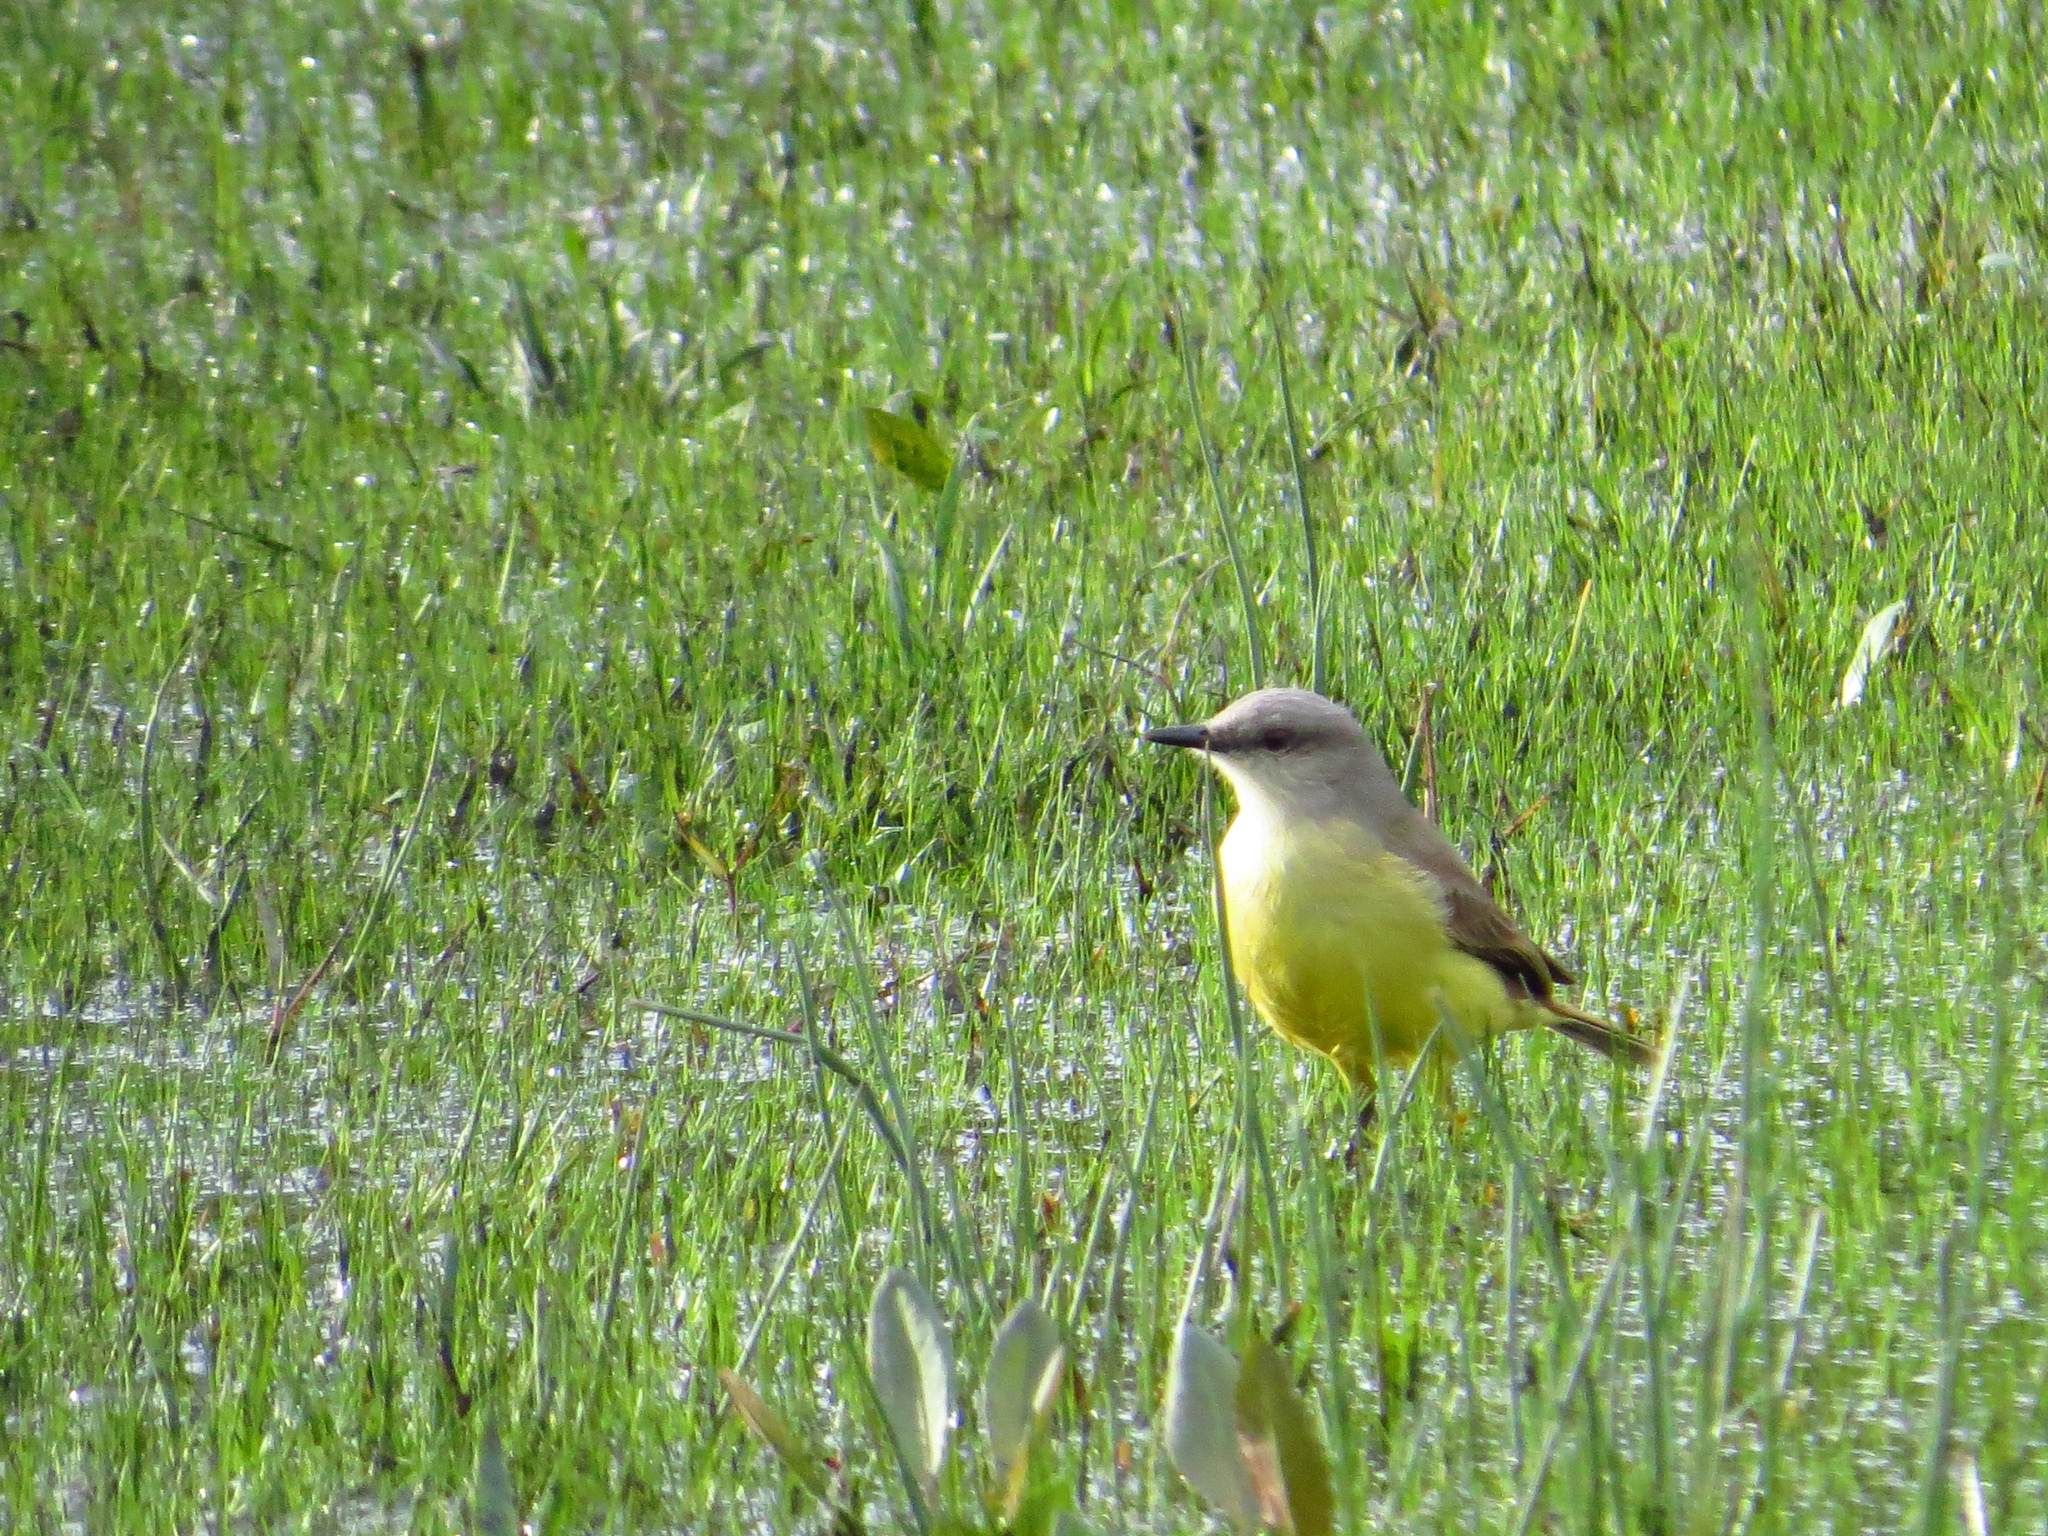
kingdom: Animalia
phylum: Chordata
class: Aves
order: Passeriformes
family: Tyrannidae
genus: Machetornis
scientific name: Machetornis rixosa
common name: Cattle tyrant
